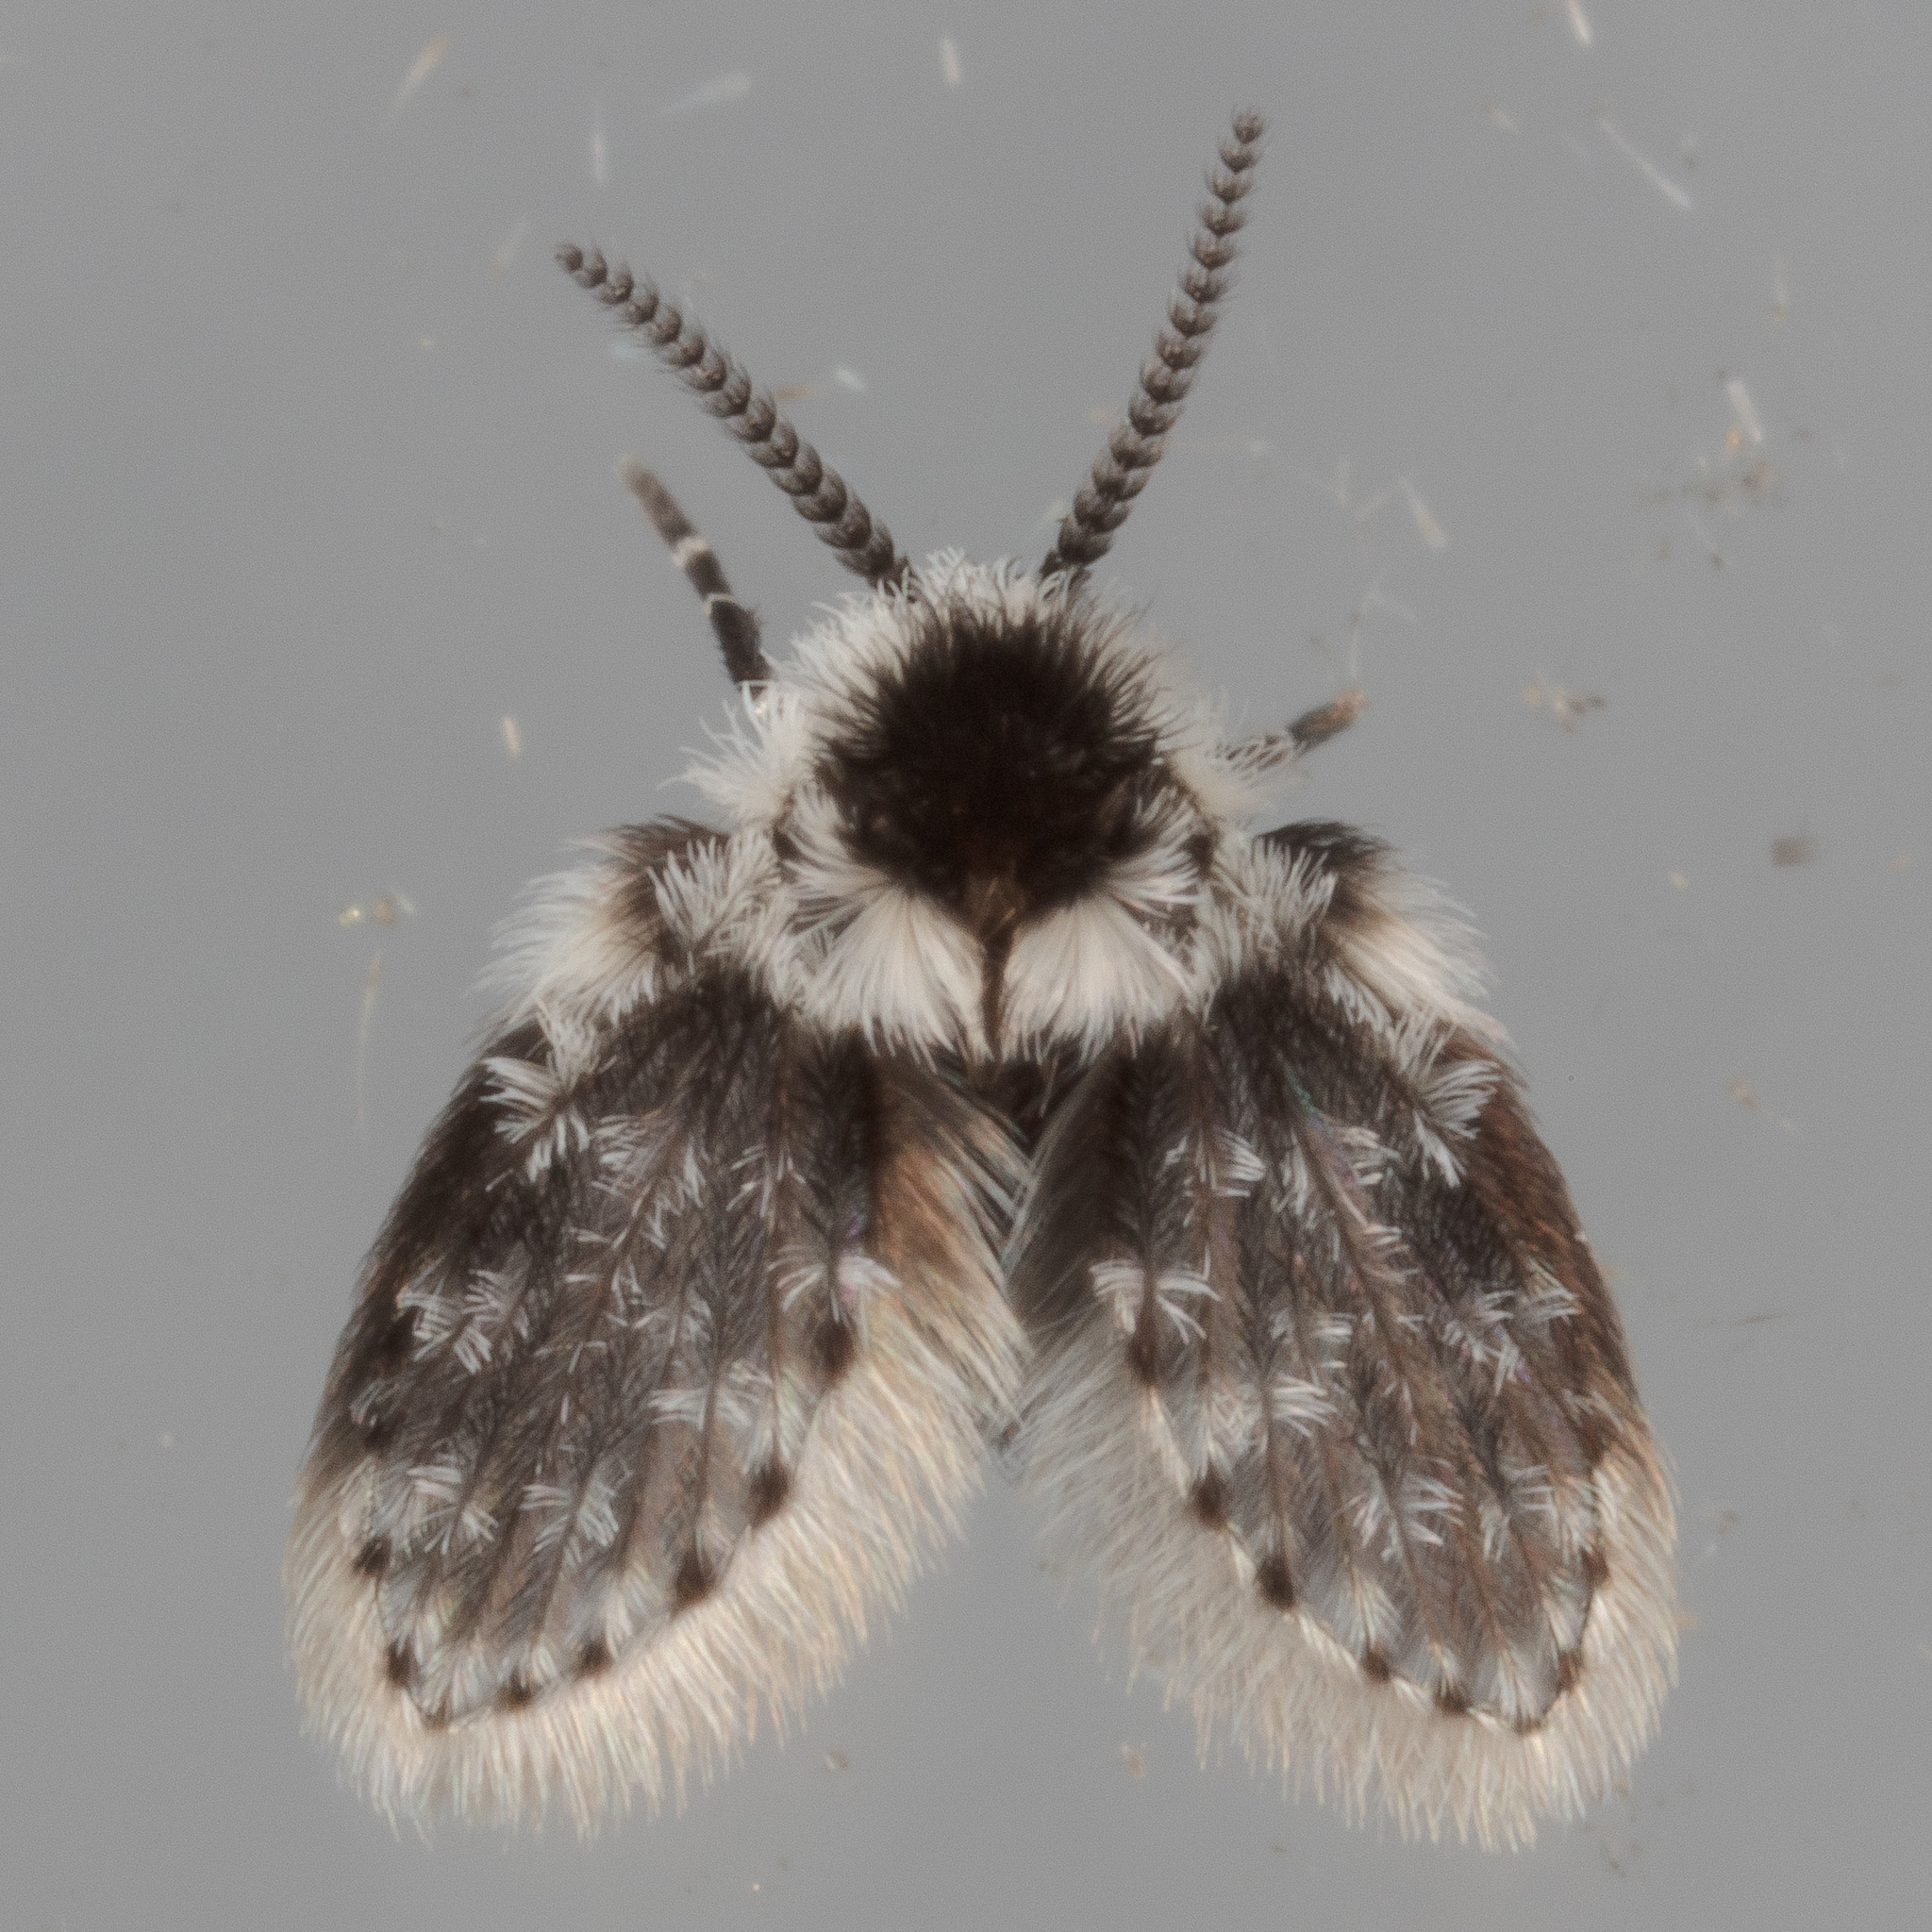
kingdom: Animalia
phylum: Arthropoda
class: Insecta
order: Diptera
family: Psychodidae
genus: Lepiseodina
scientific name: Lepiseodina
